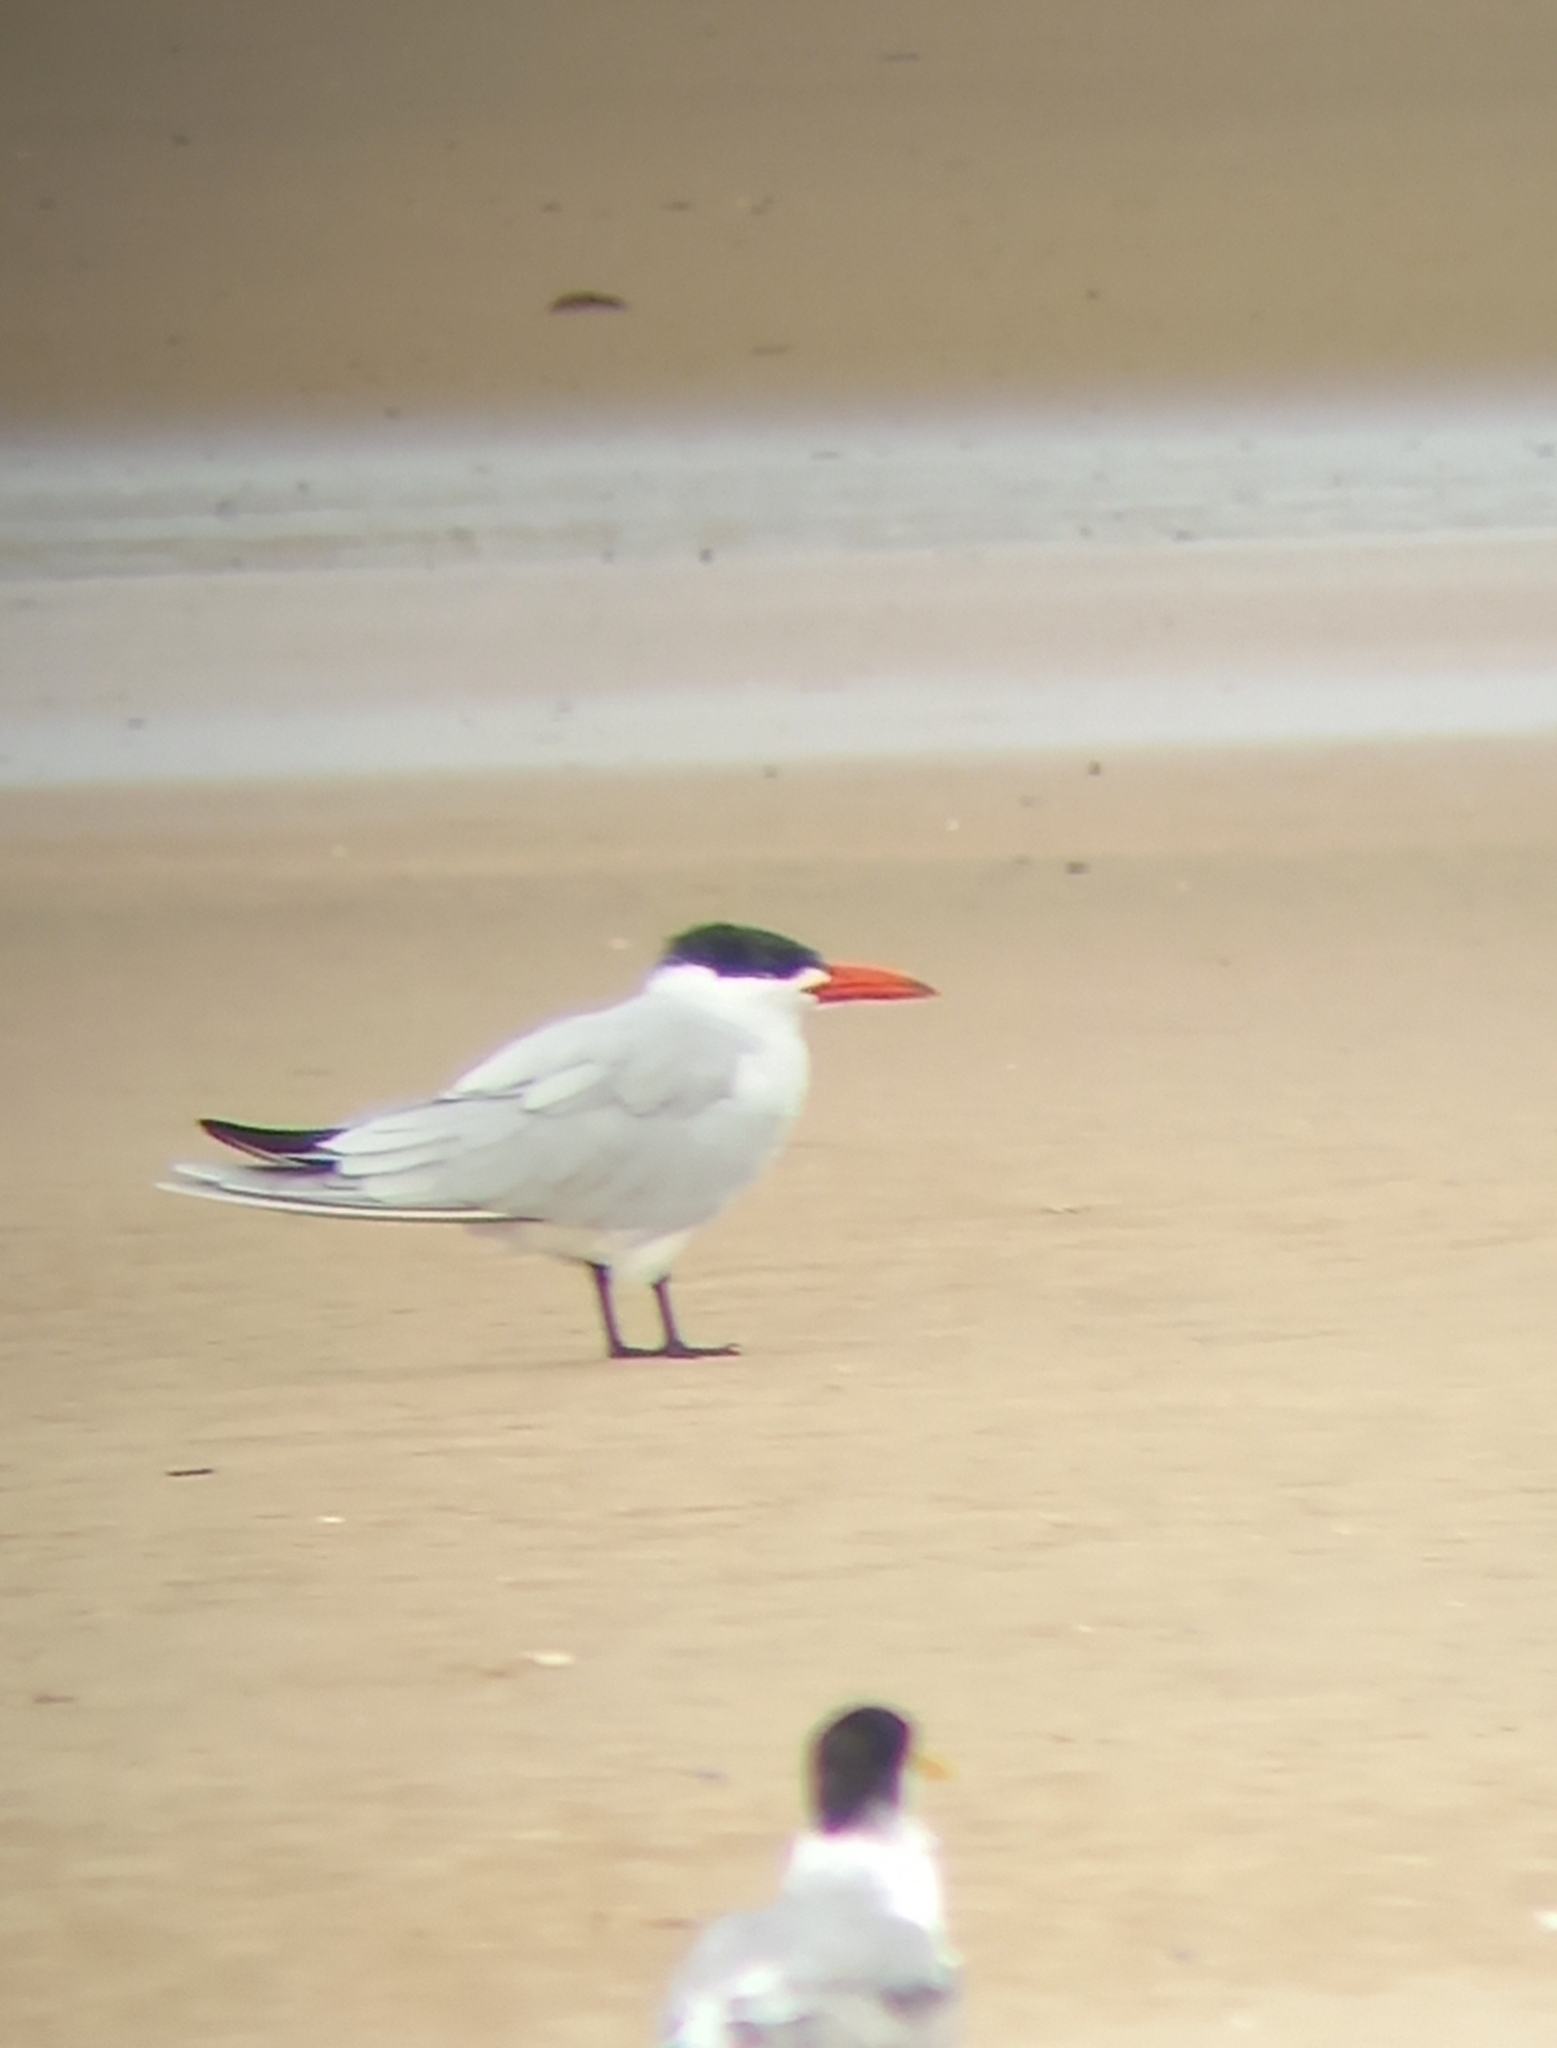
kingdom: Animalia
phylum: Chordata
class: Aves
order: Charadriiformes
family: Laridae
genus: Hydroprogne
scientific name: Hydroprogne caspia
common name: Caspian tern
